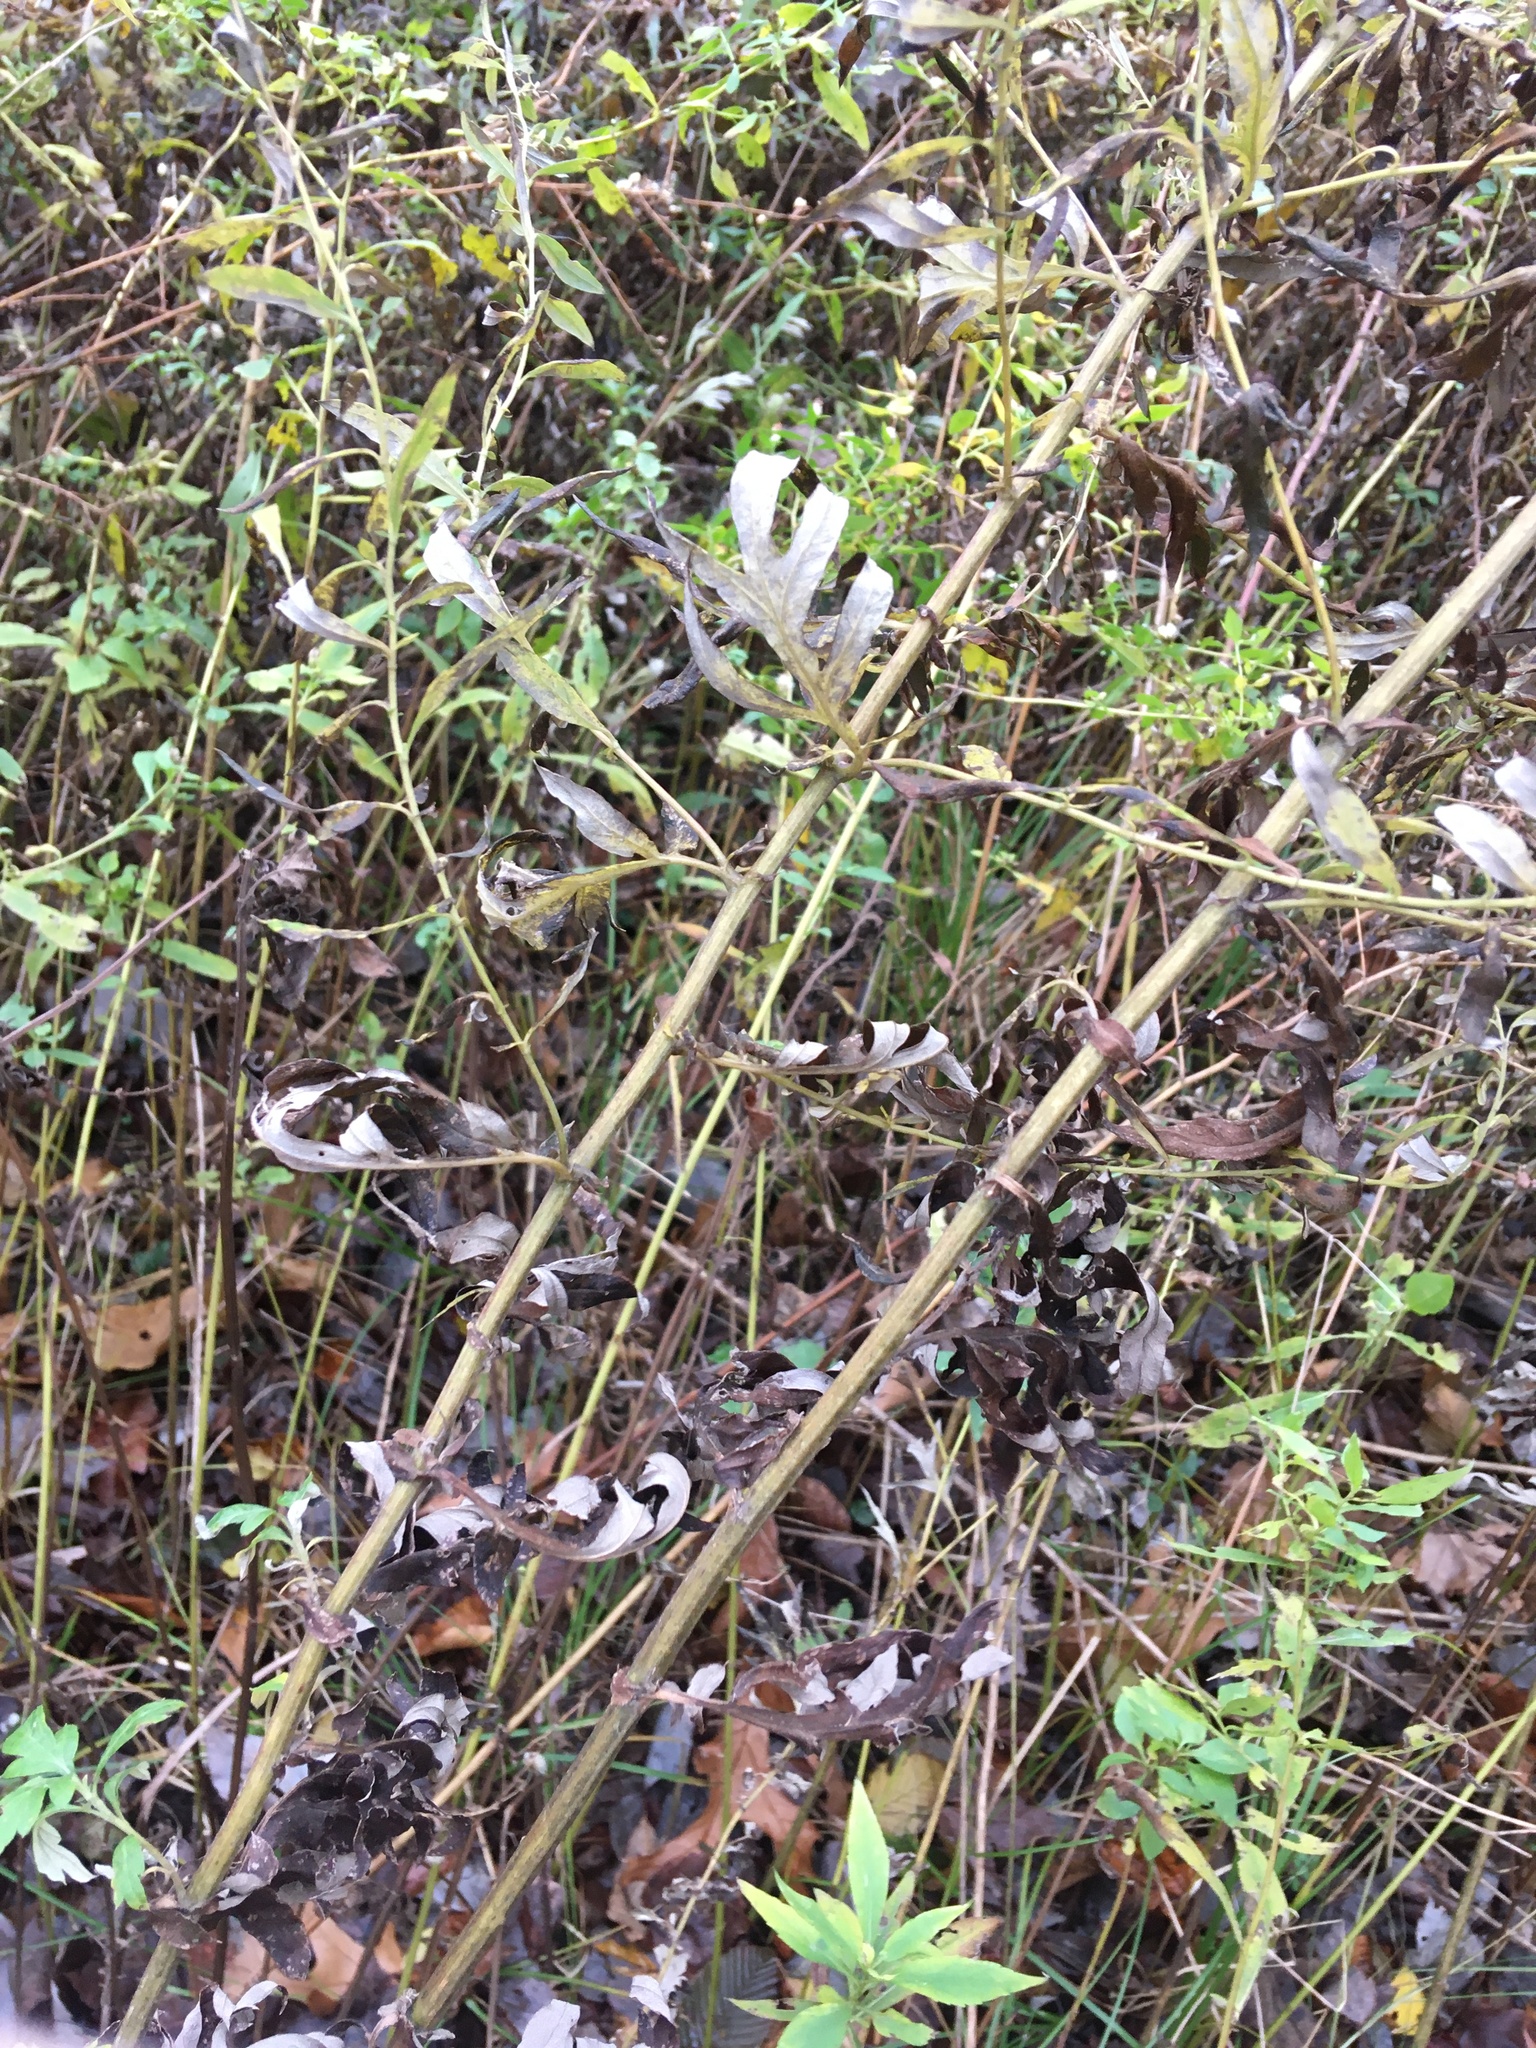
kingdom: Plantae
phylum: Tracheophyta
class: Magnoliopsida
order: Asterales
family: Asteraceae
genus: Artemisia
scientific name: Artemisia vulgaris
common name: Mugwort
